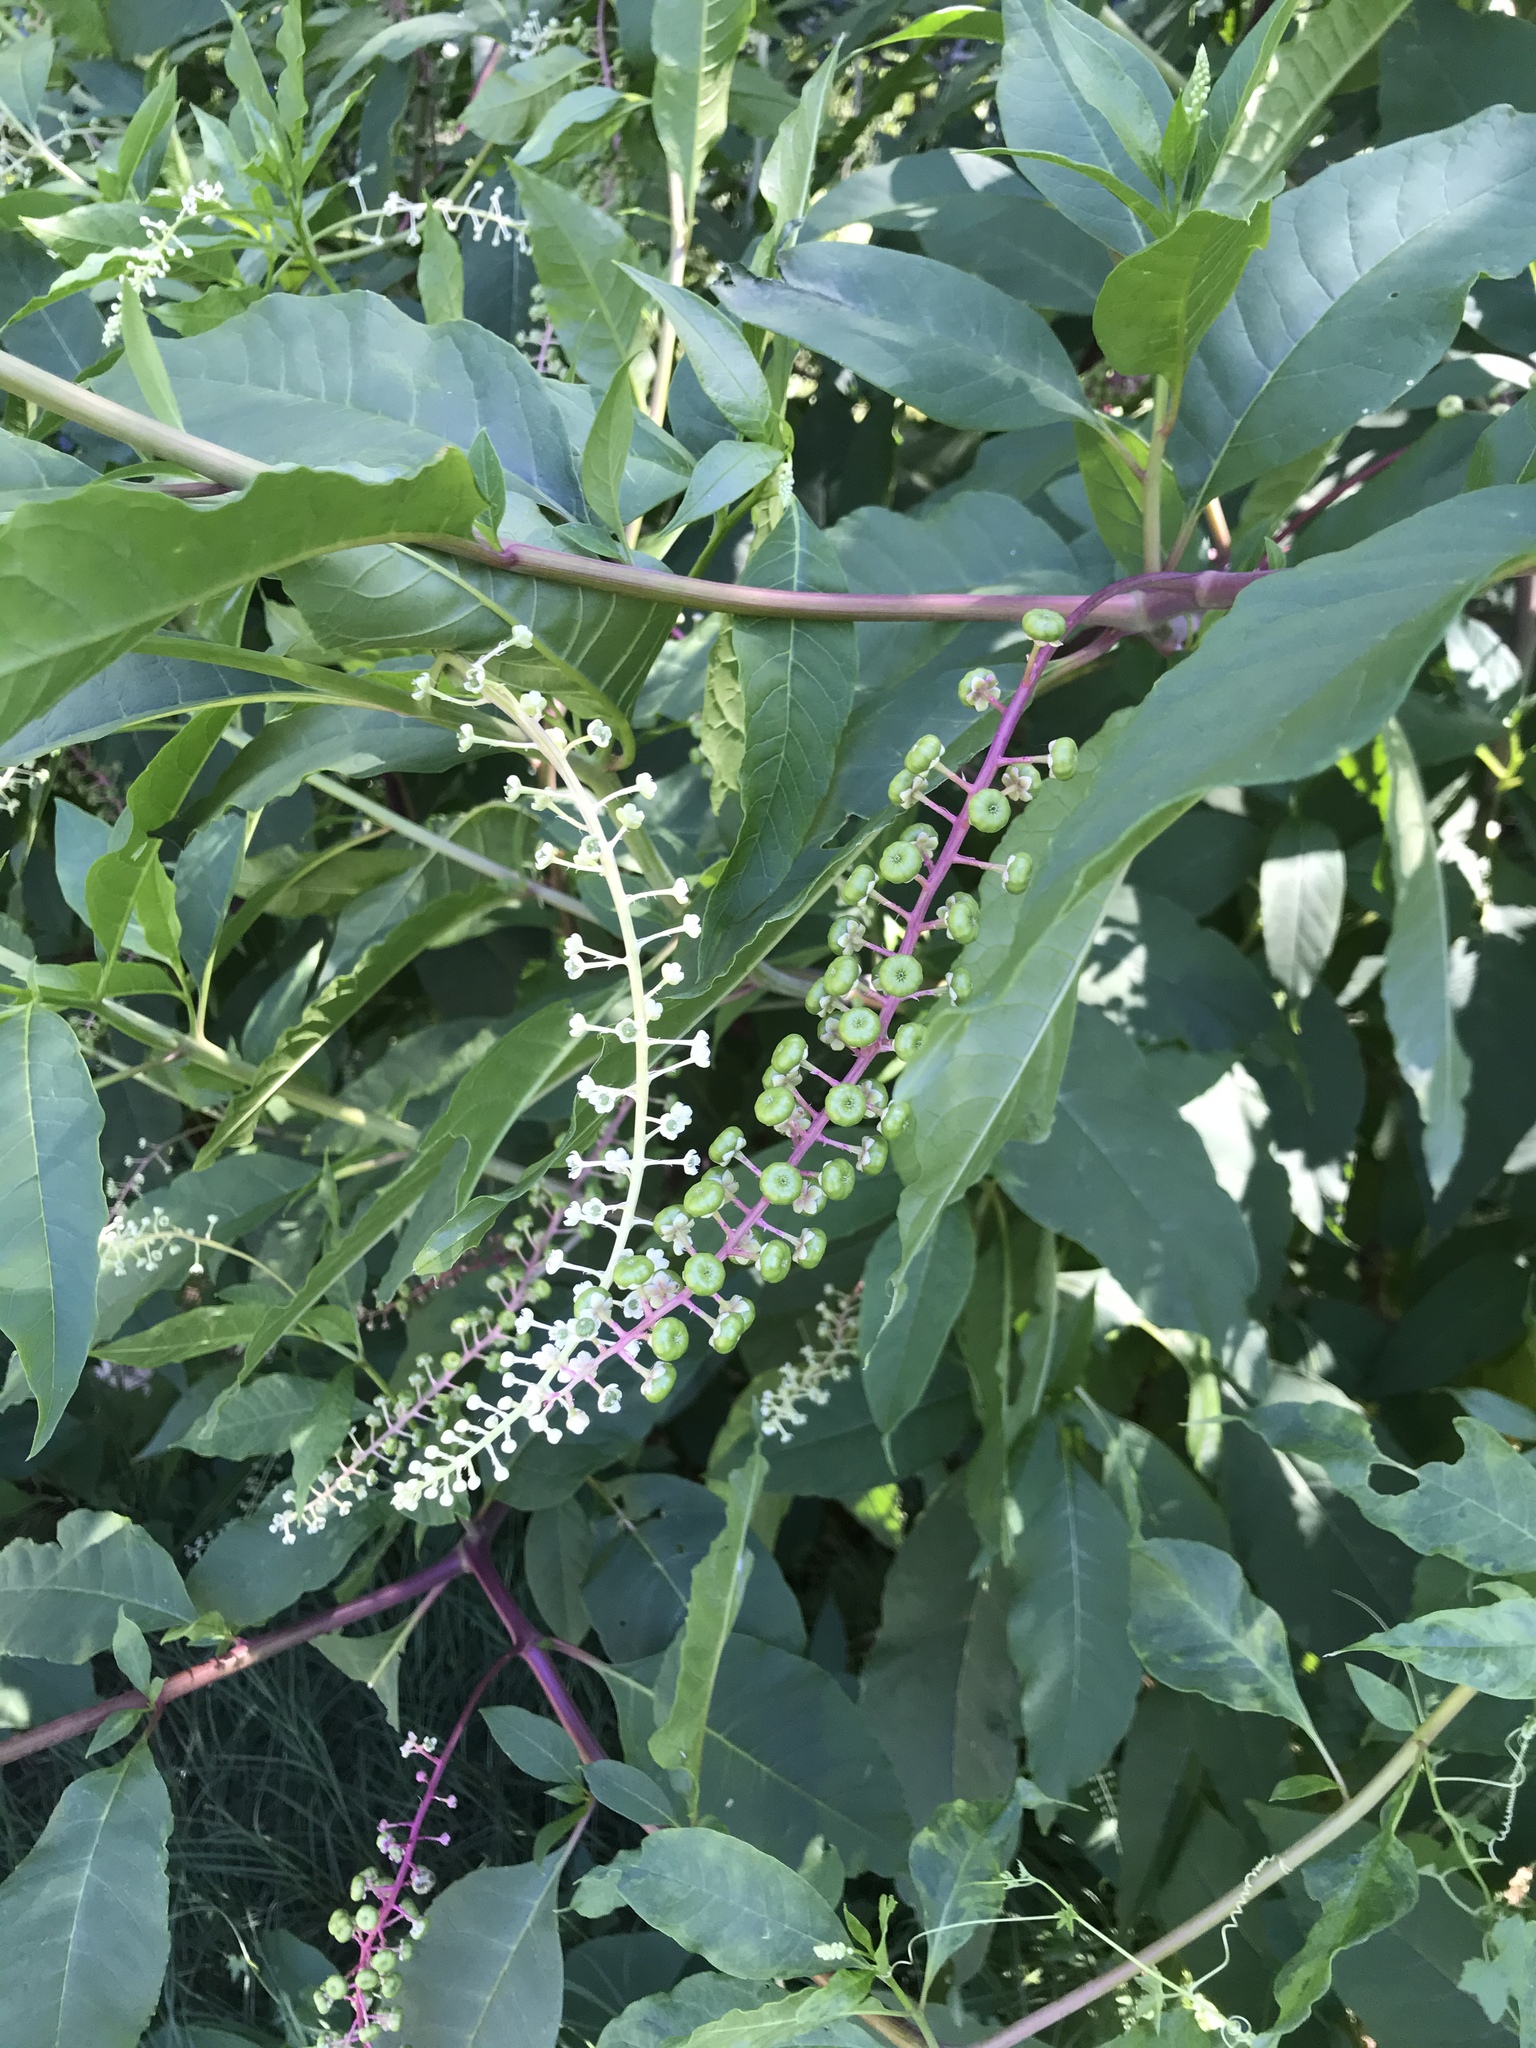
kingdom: Plantae
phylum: Tracheophyta
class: Magnoliopsida
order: Caryophyllales
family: Phytolaccaceae
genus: Phytolacca
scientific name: Phytolacca americana
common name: American pokeweed
